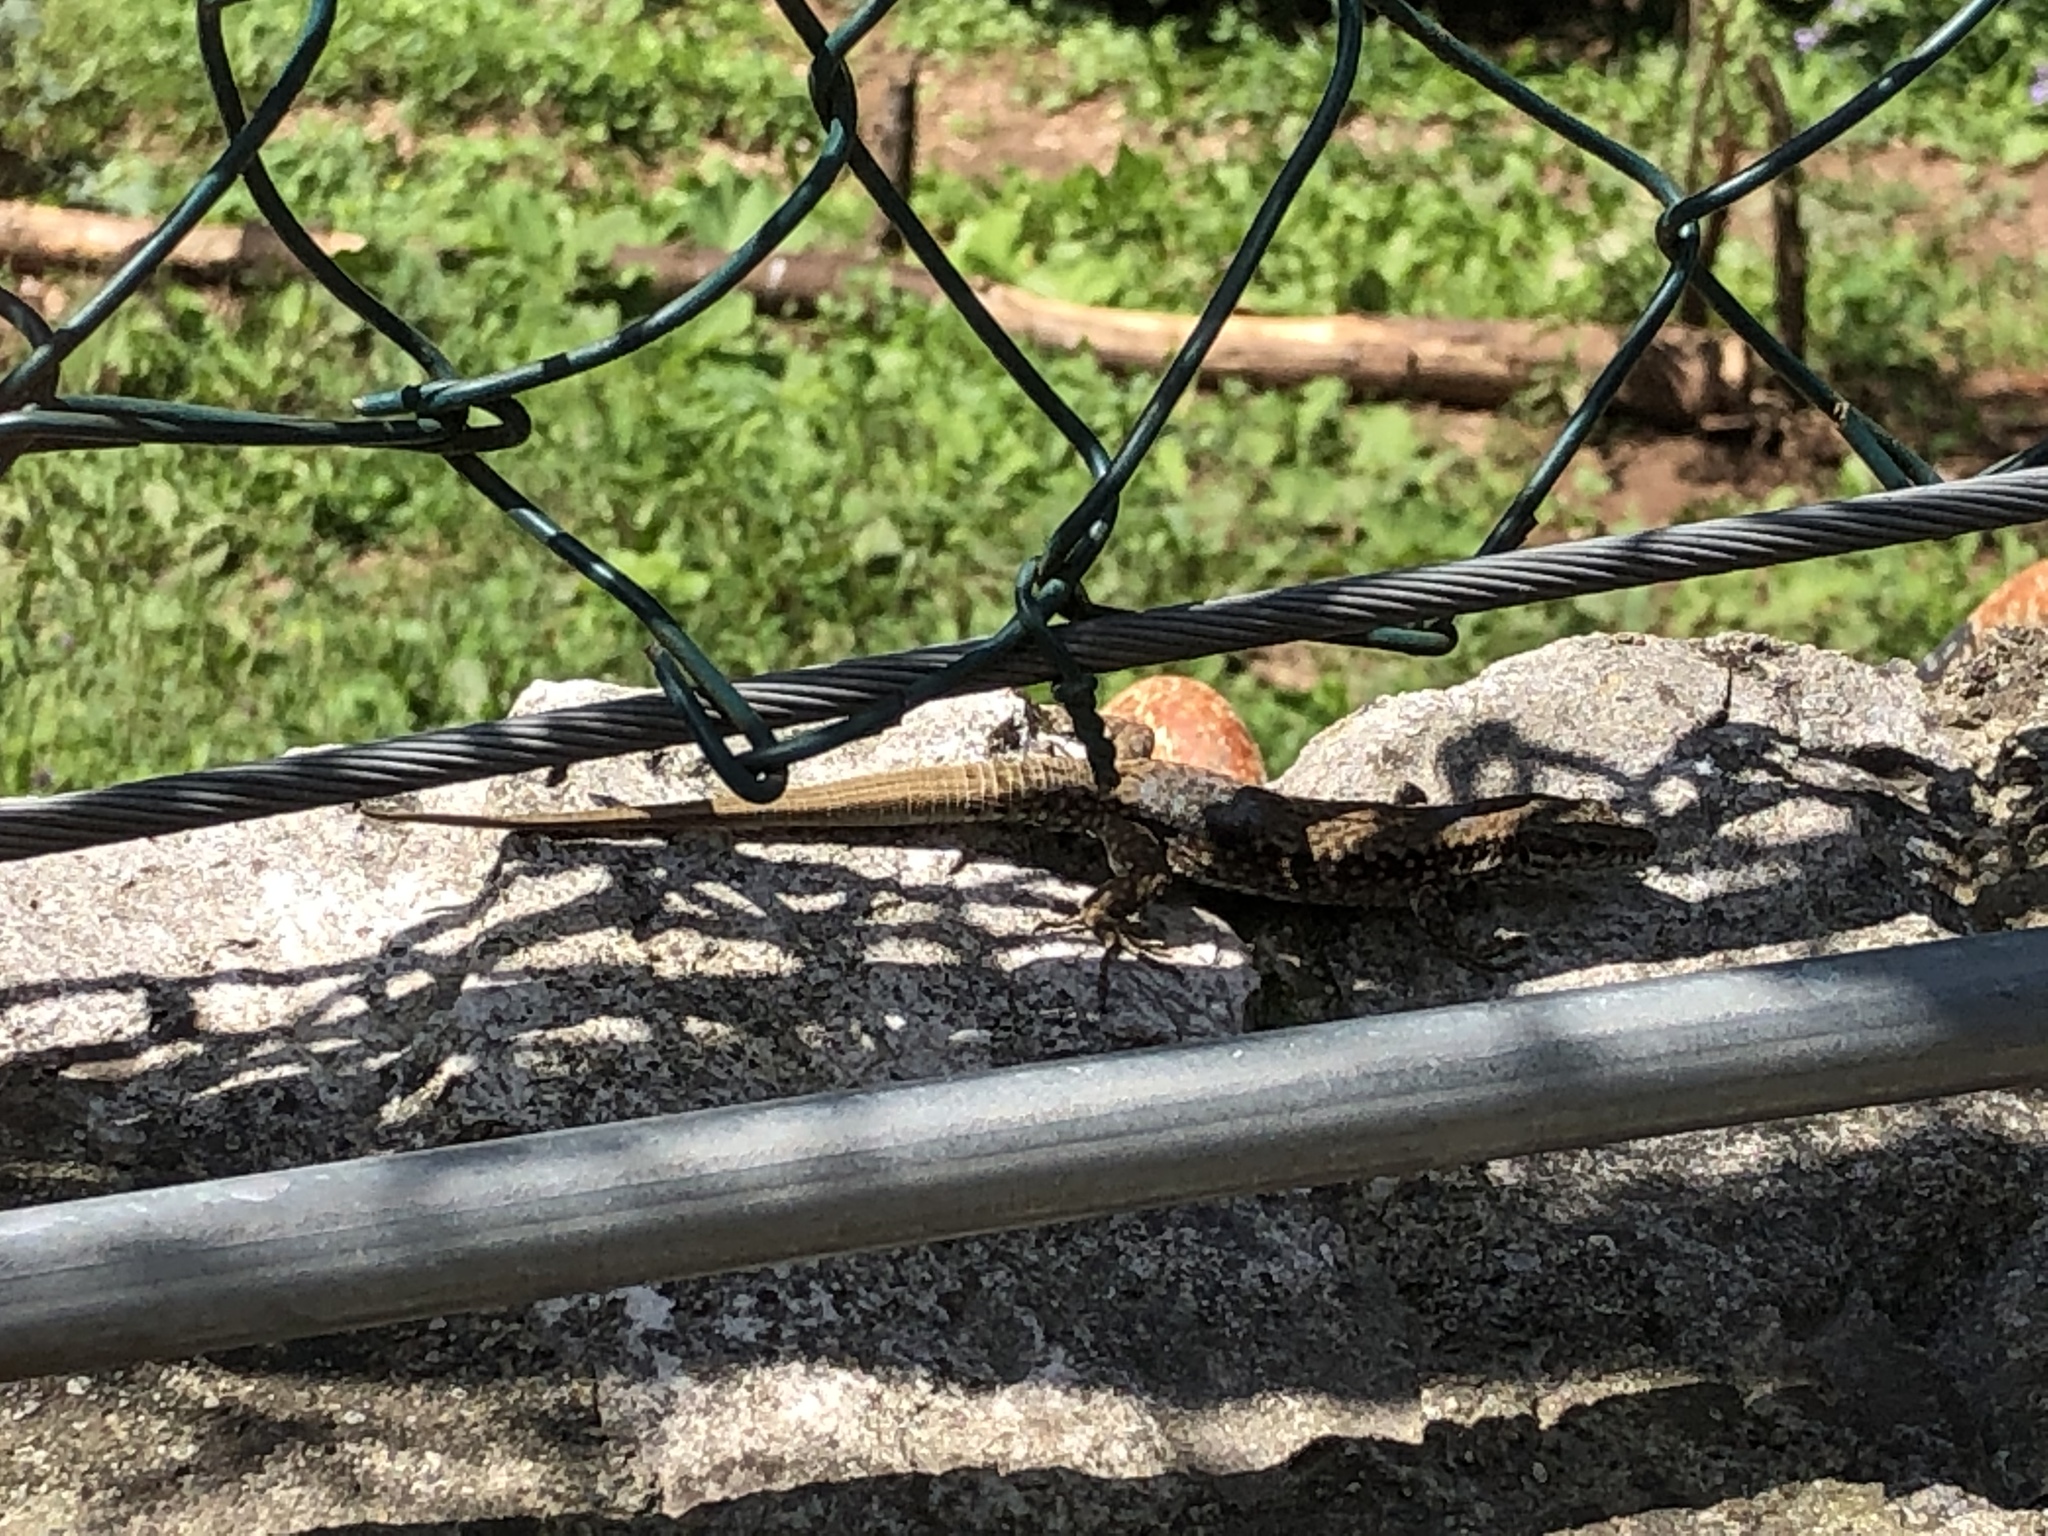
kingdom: Animalia
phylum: Chordata
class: Squamata
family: Lacertidae
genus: Podarcis
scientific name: Podarcis muralis
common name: Common wall lizard
